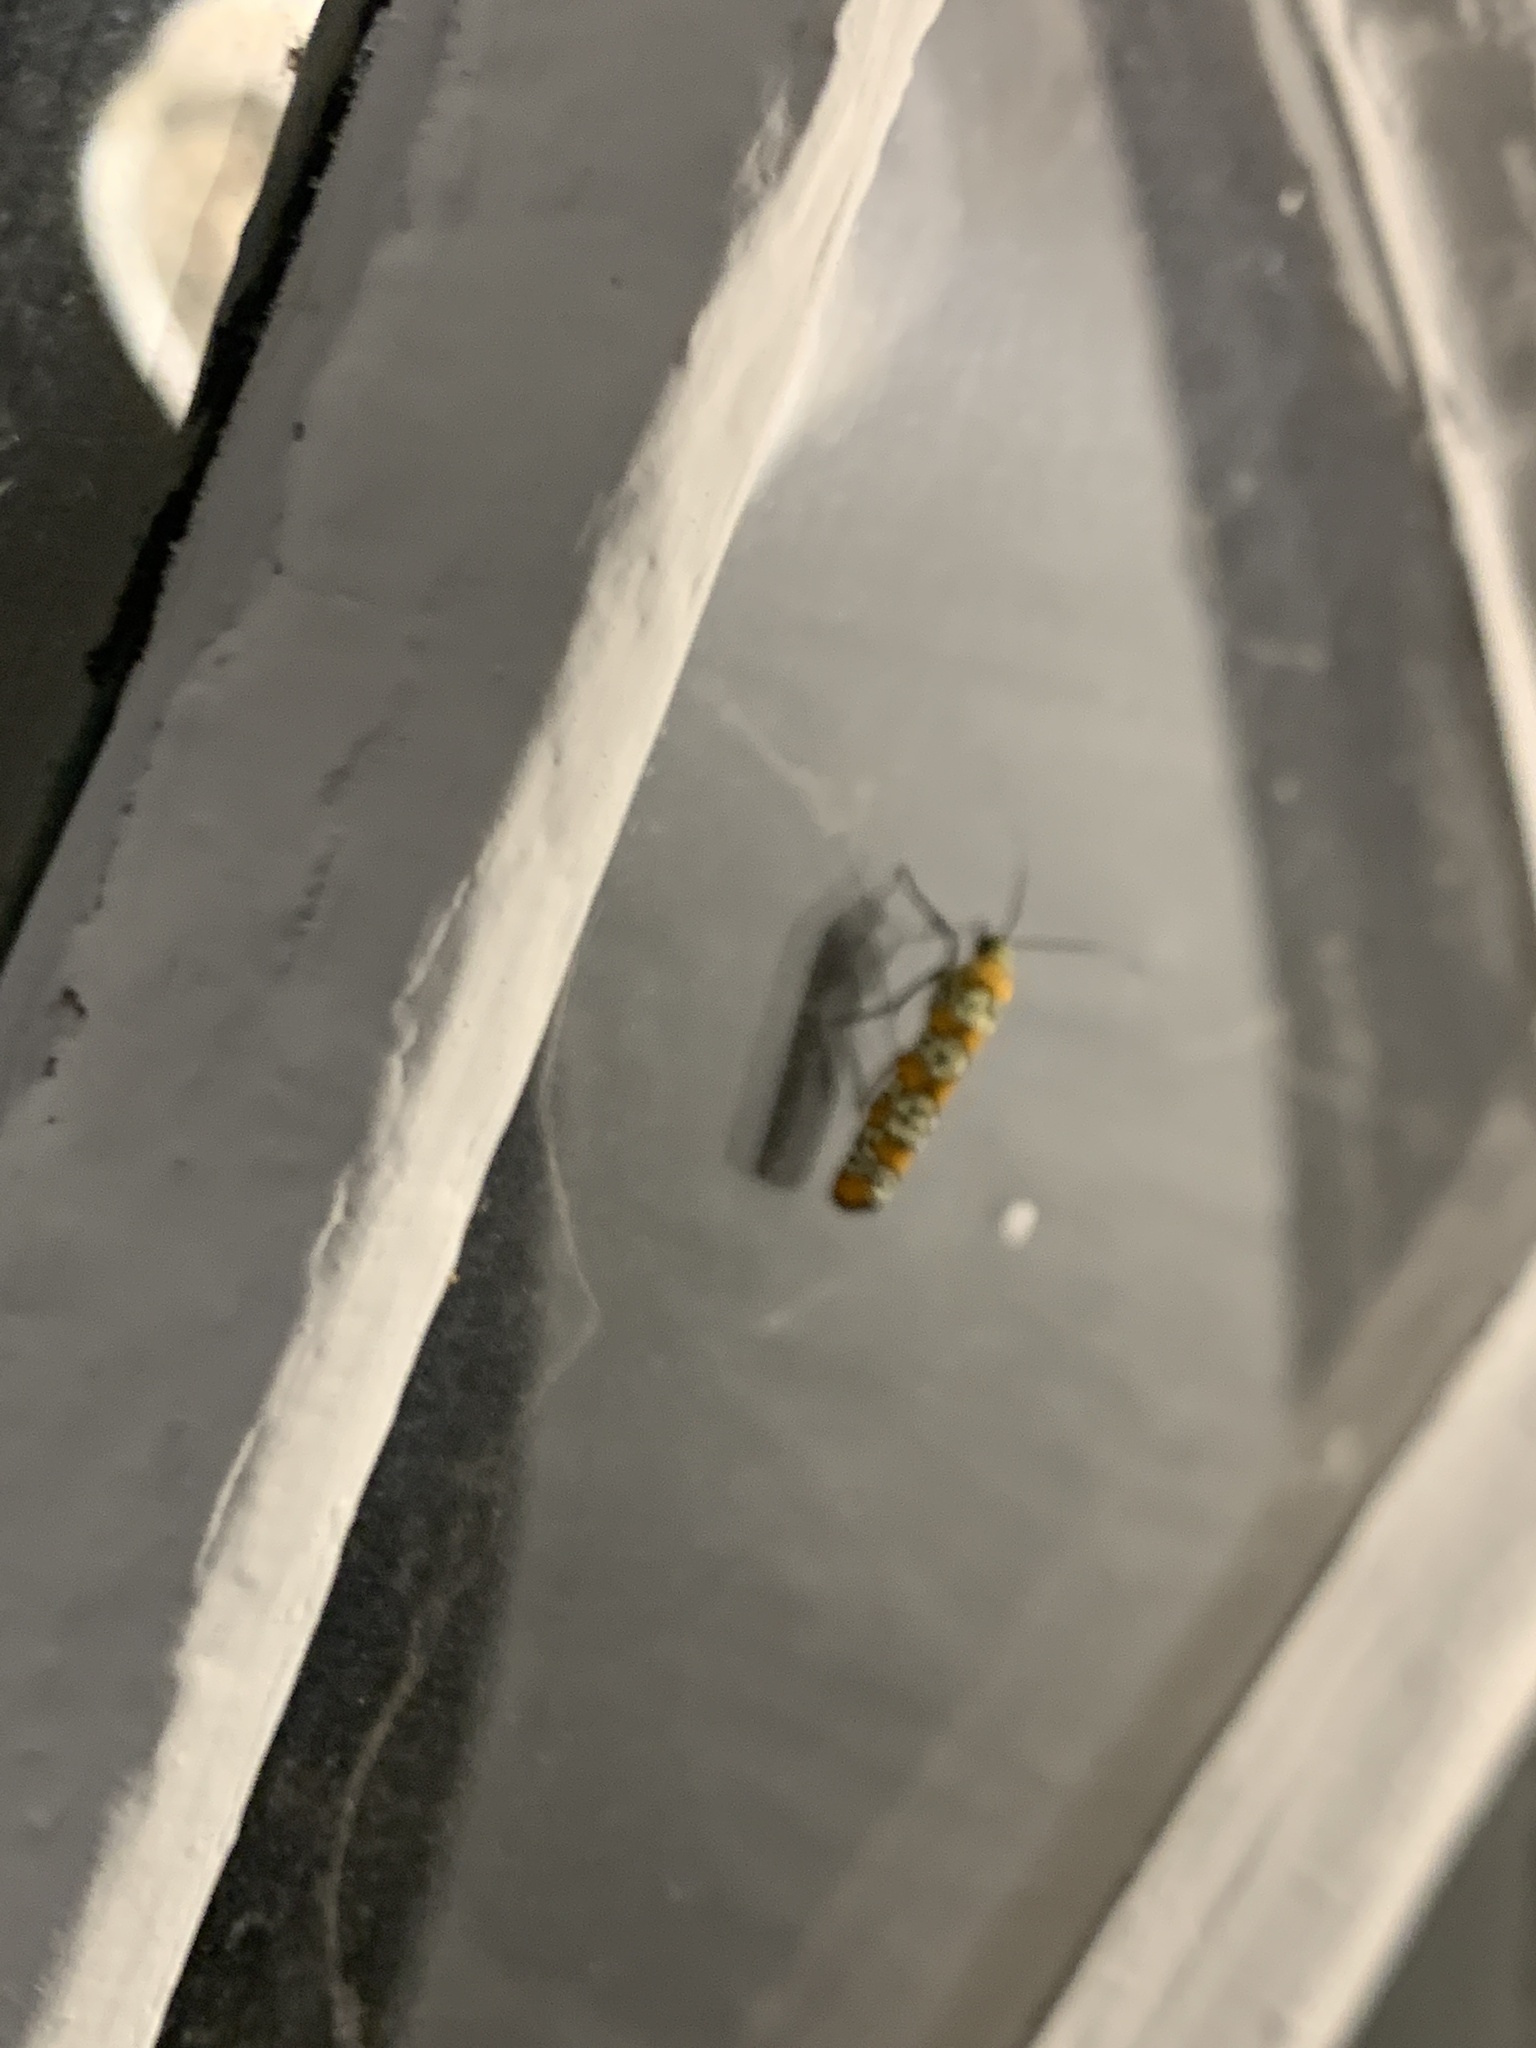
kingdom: Animalia
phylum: Arthropoda
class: Insecta
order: Lepidoptera
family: Attevidae
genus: Atteva
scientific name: Atteva punctella
